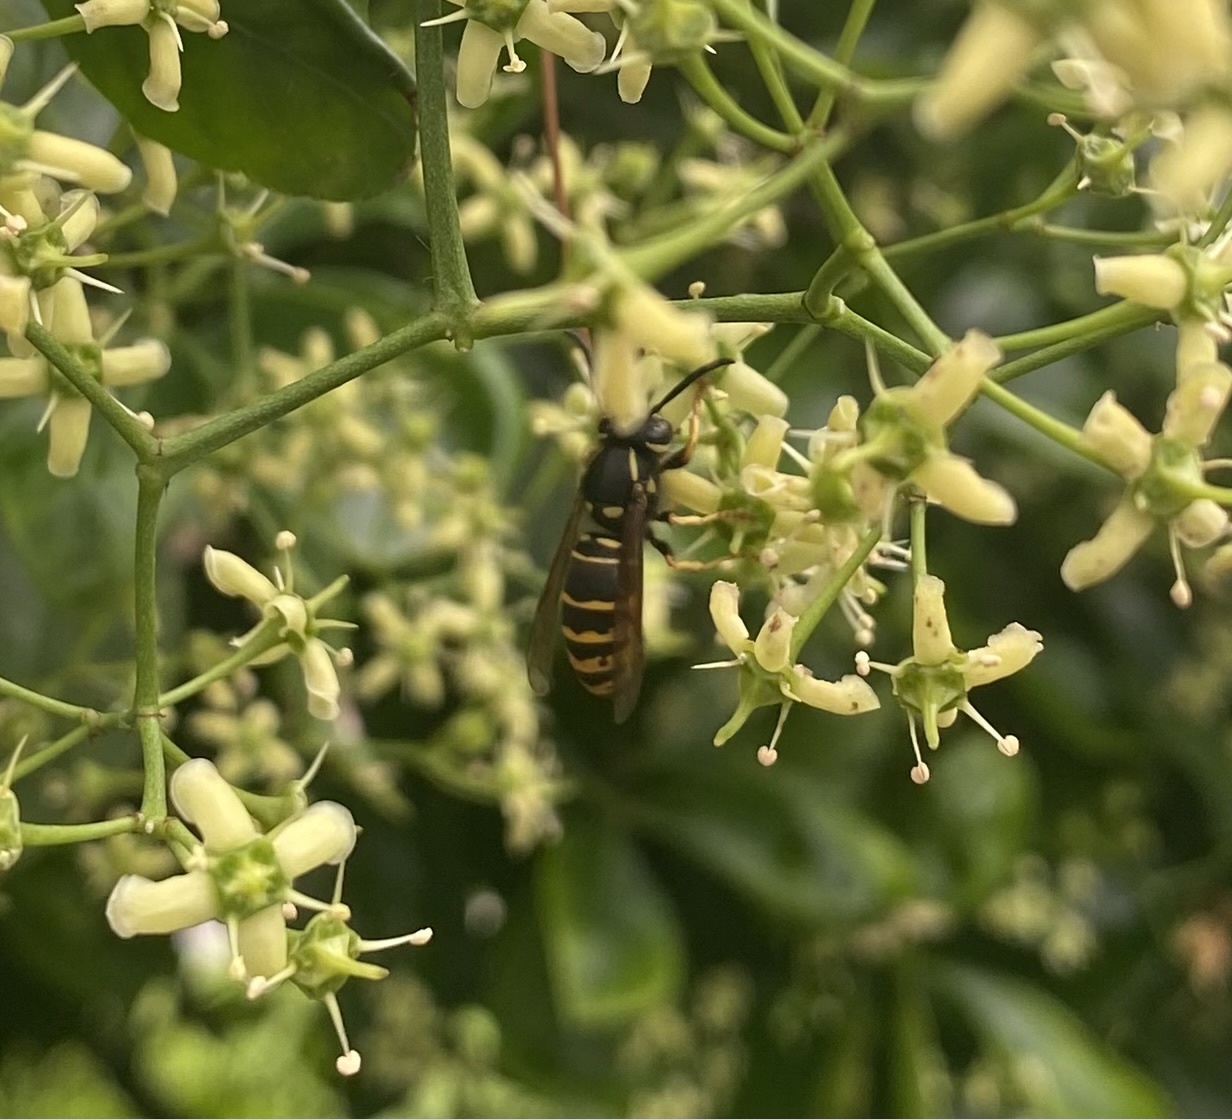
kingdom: Animalia
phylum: Arthropoda
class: Insecta
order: Hymenoptera
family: Vespidae
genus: Vespula
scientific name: Vespula vidua
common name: Widow yellowjacket
